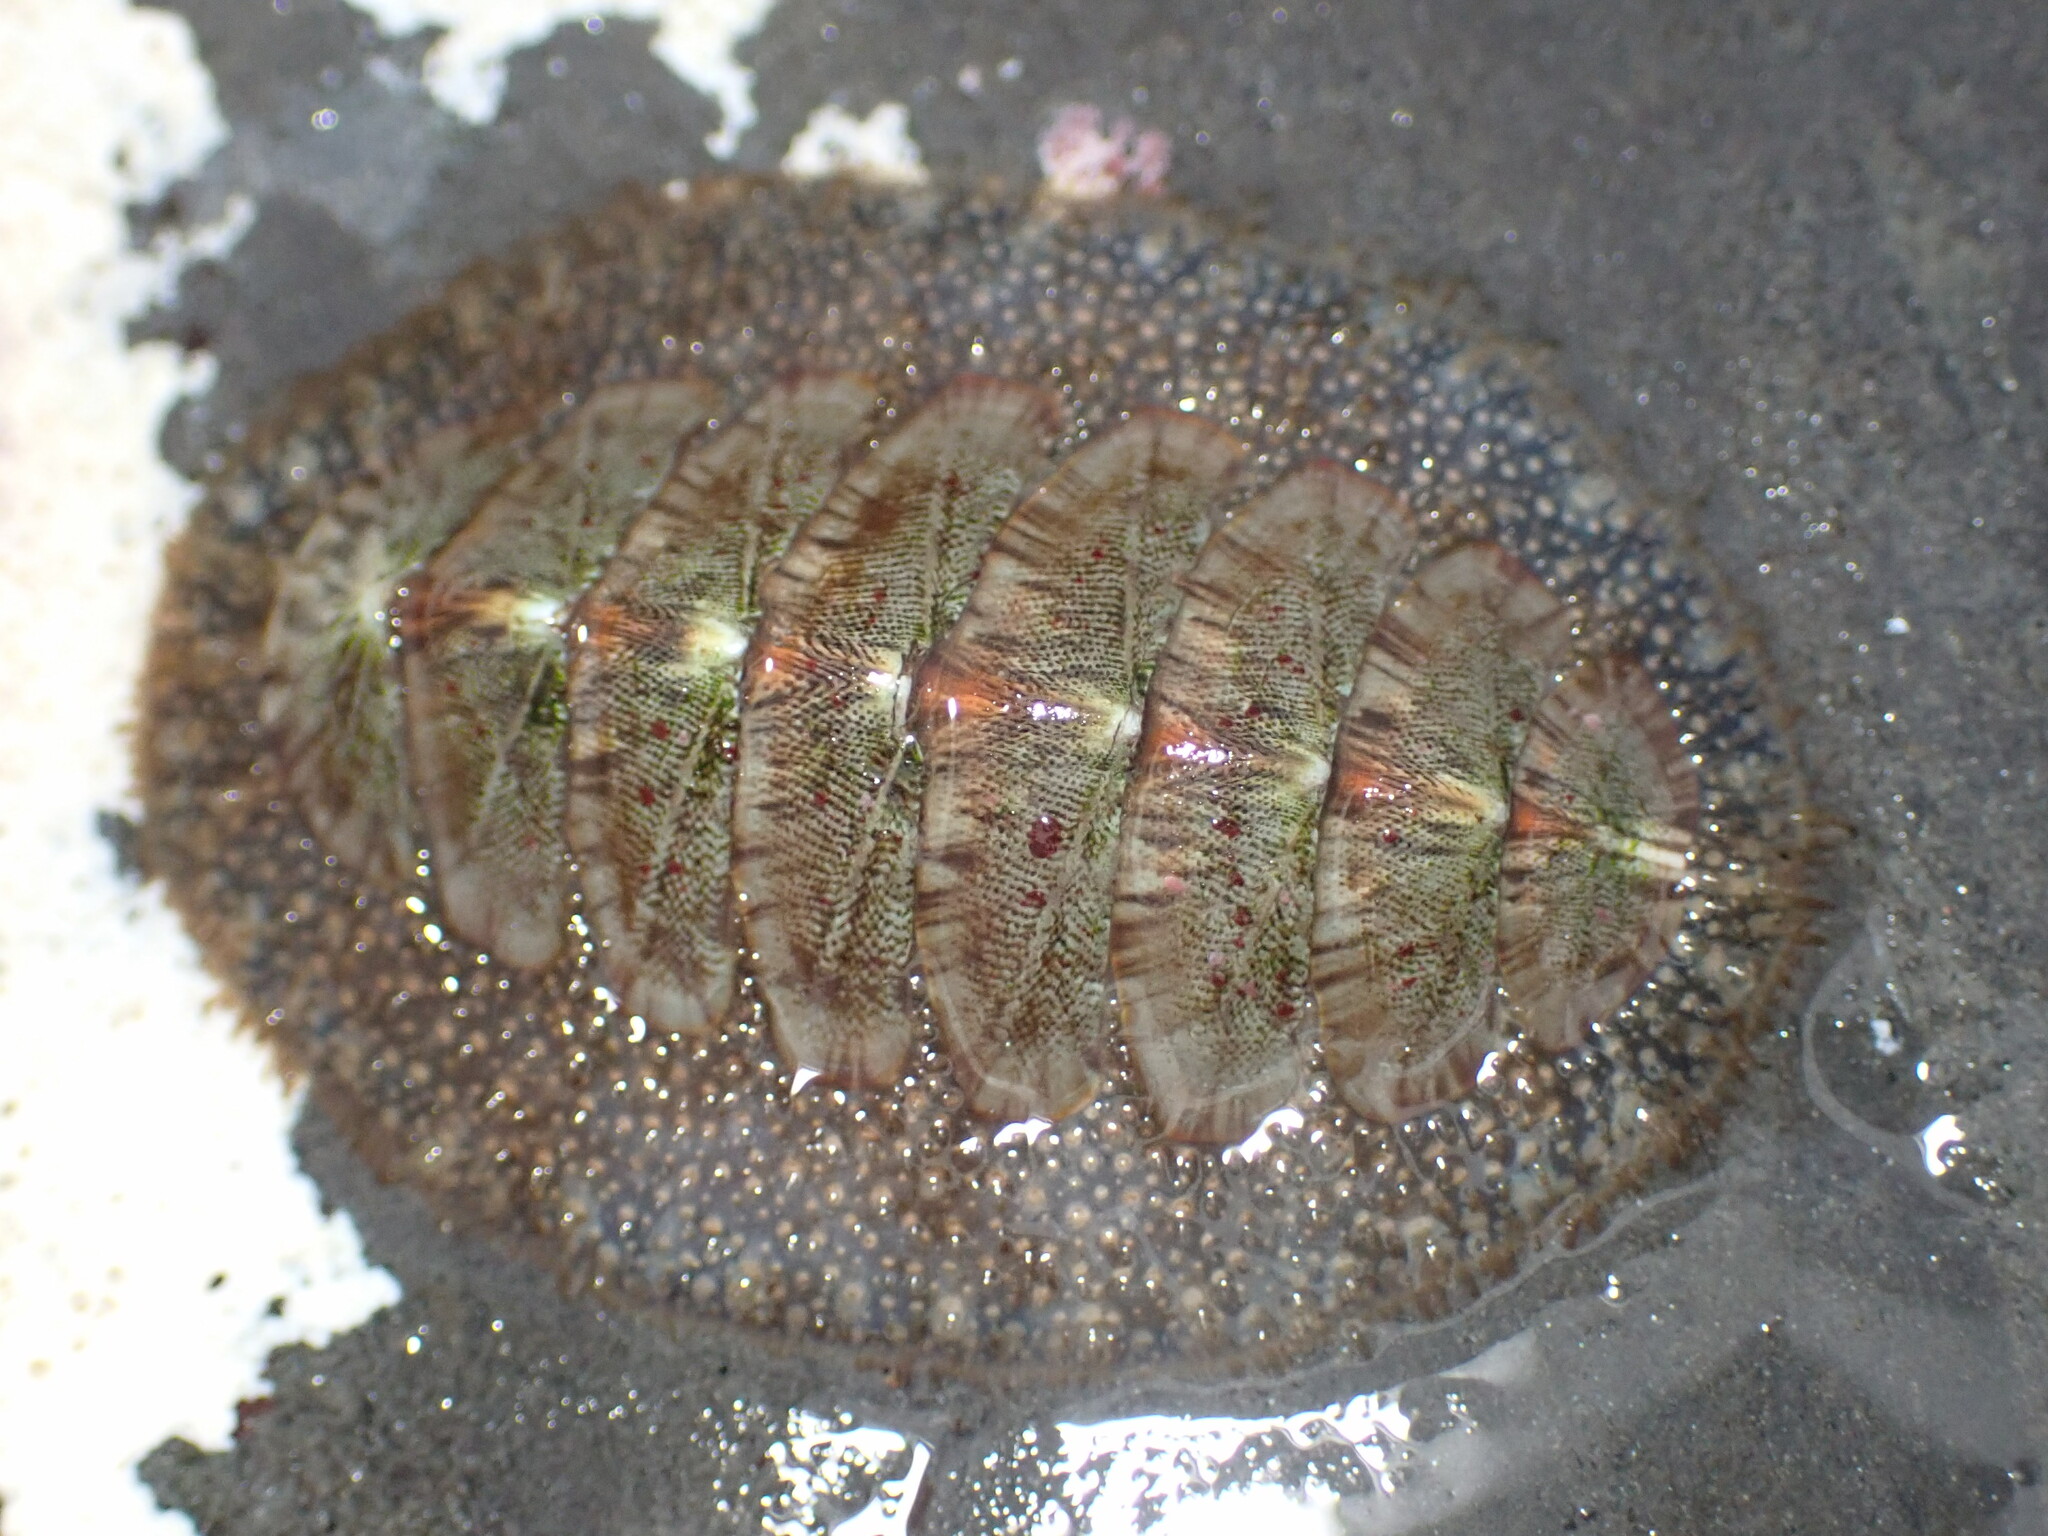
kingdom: Animalia
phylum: Mollusca
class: Polyplacophora
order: Chitonida
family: Mopaliidae
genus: Mopalia
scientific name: Mopalia lignosa
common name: Woody chiton
